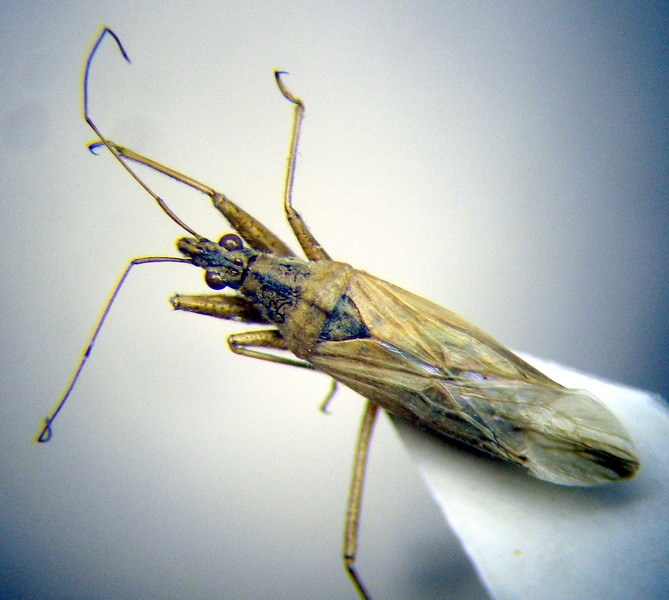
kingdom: Animalia
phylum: Arthropoda
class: Insecta
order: Hemiptera
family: Nabidae
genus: Nabis
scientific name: Nabis pseudoferus
